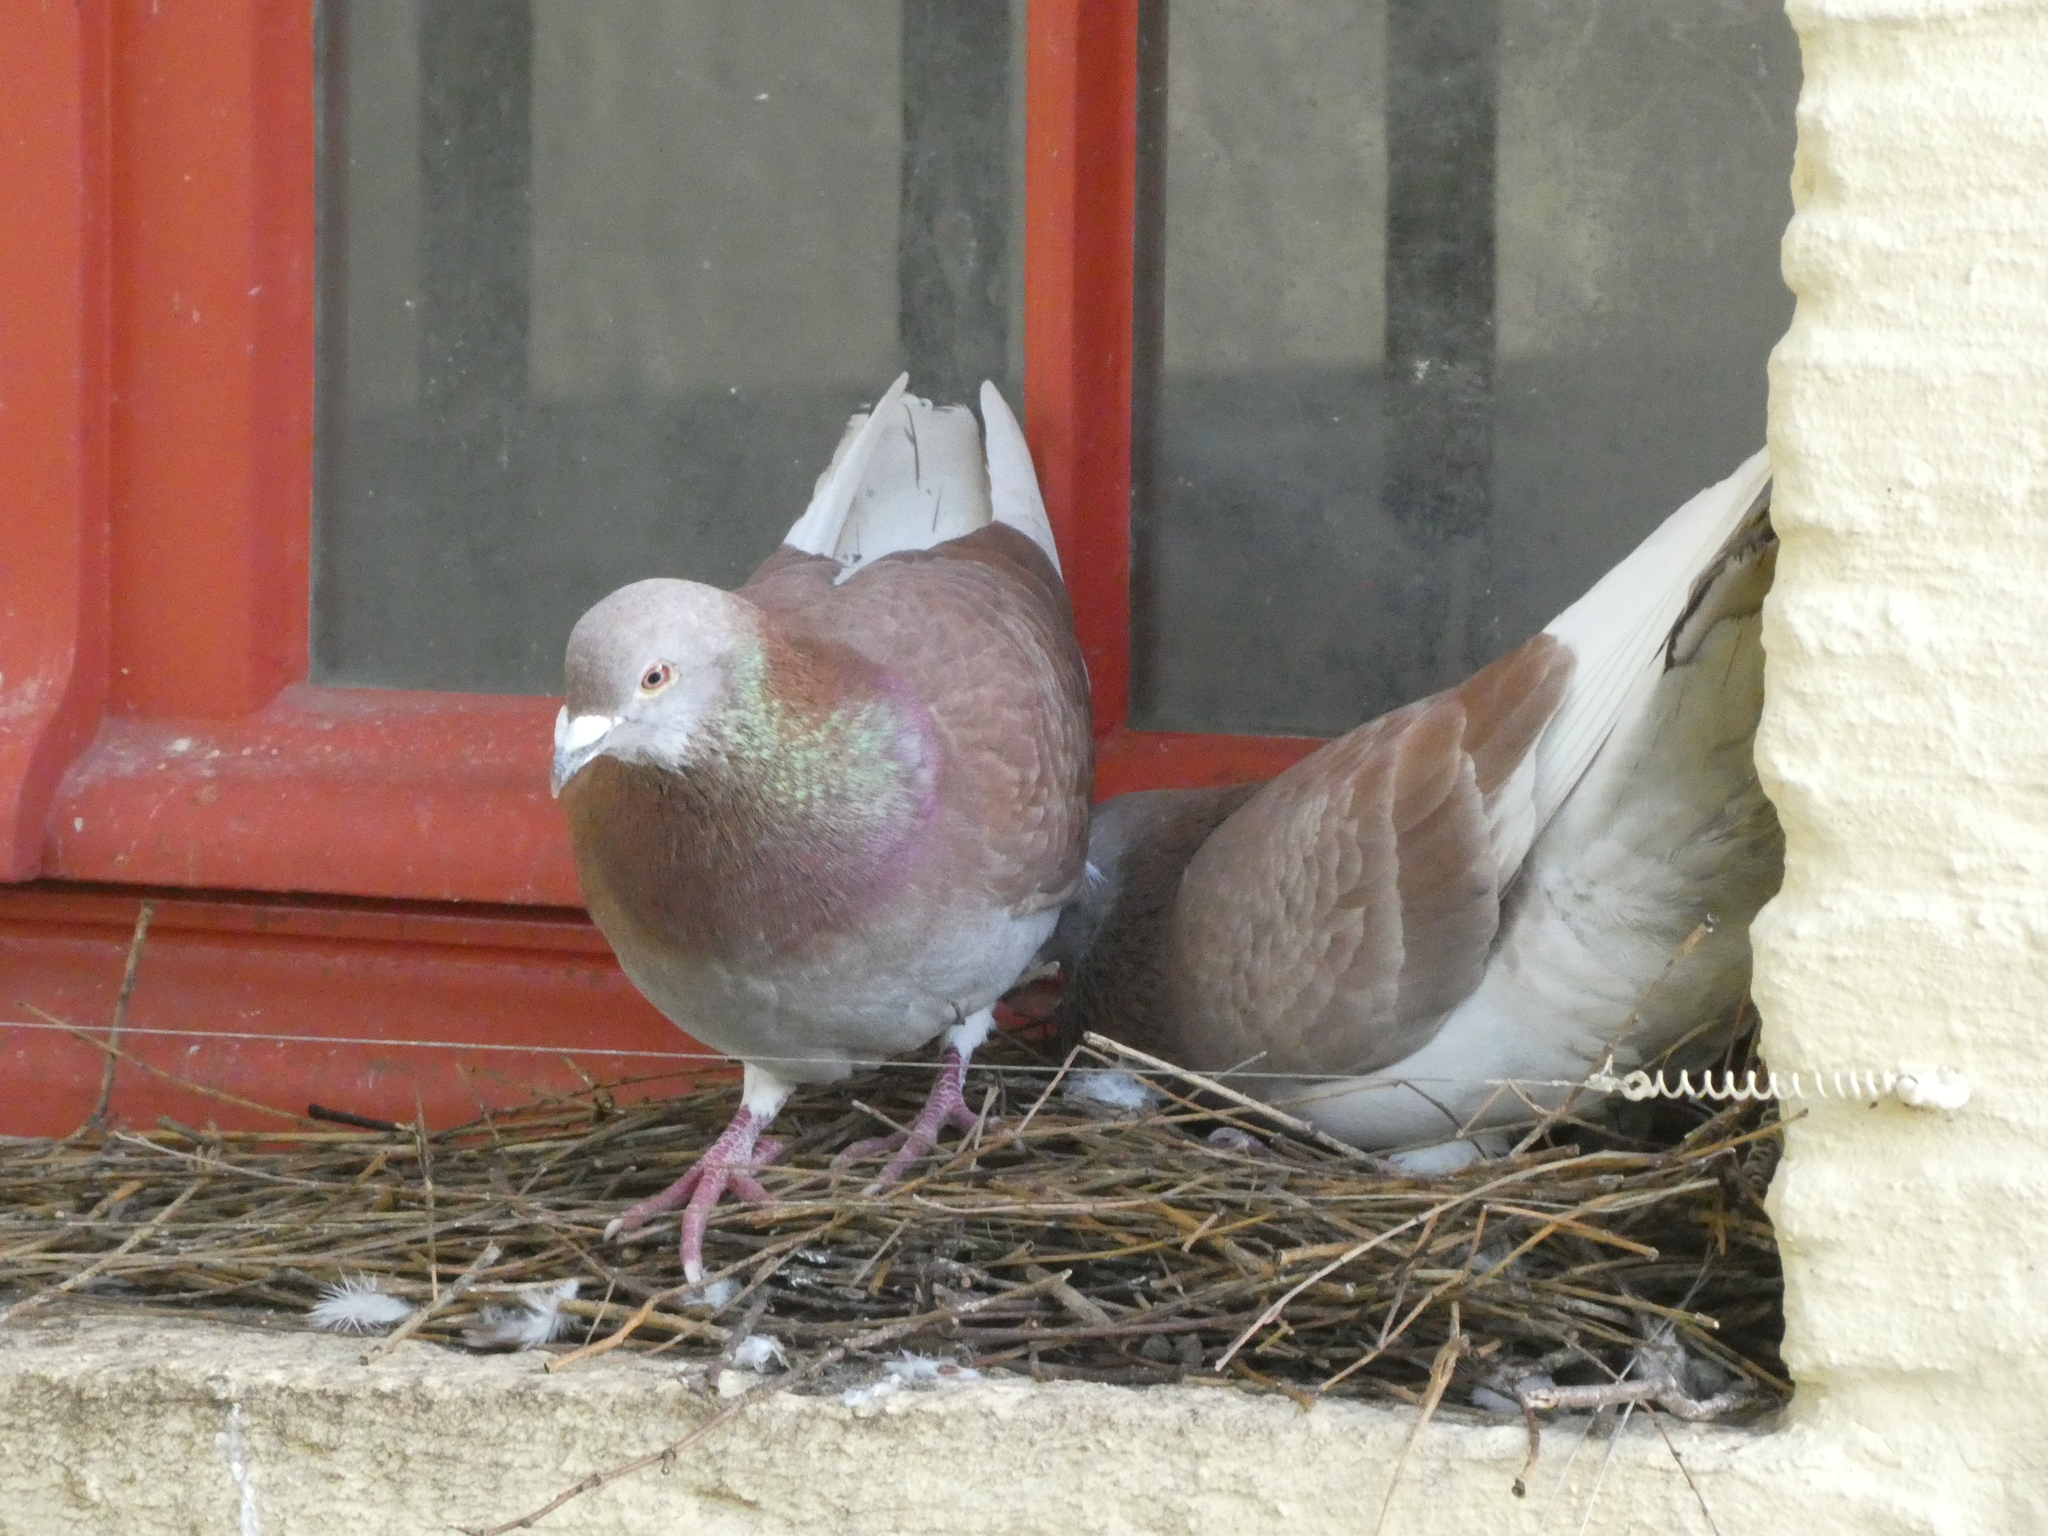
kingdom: Animalia
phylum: Chordata
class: Aves
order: Columbiformes
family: Columbidae
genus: Columba
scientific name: Columba livia
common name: Rock pigeon
